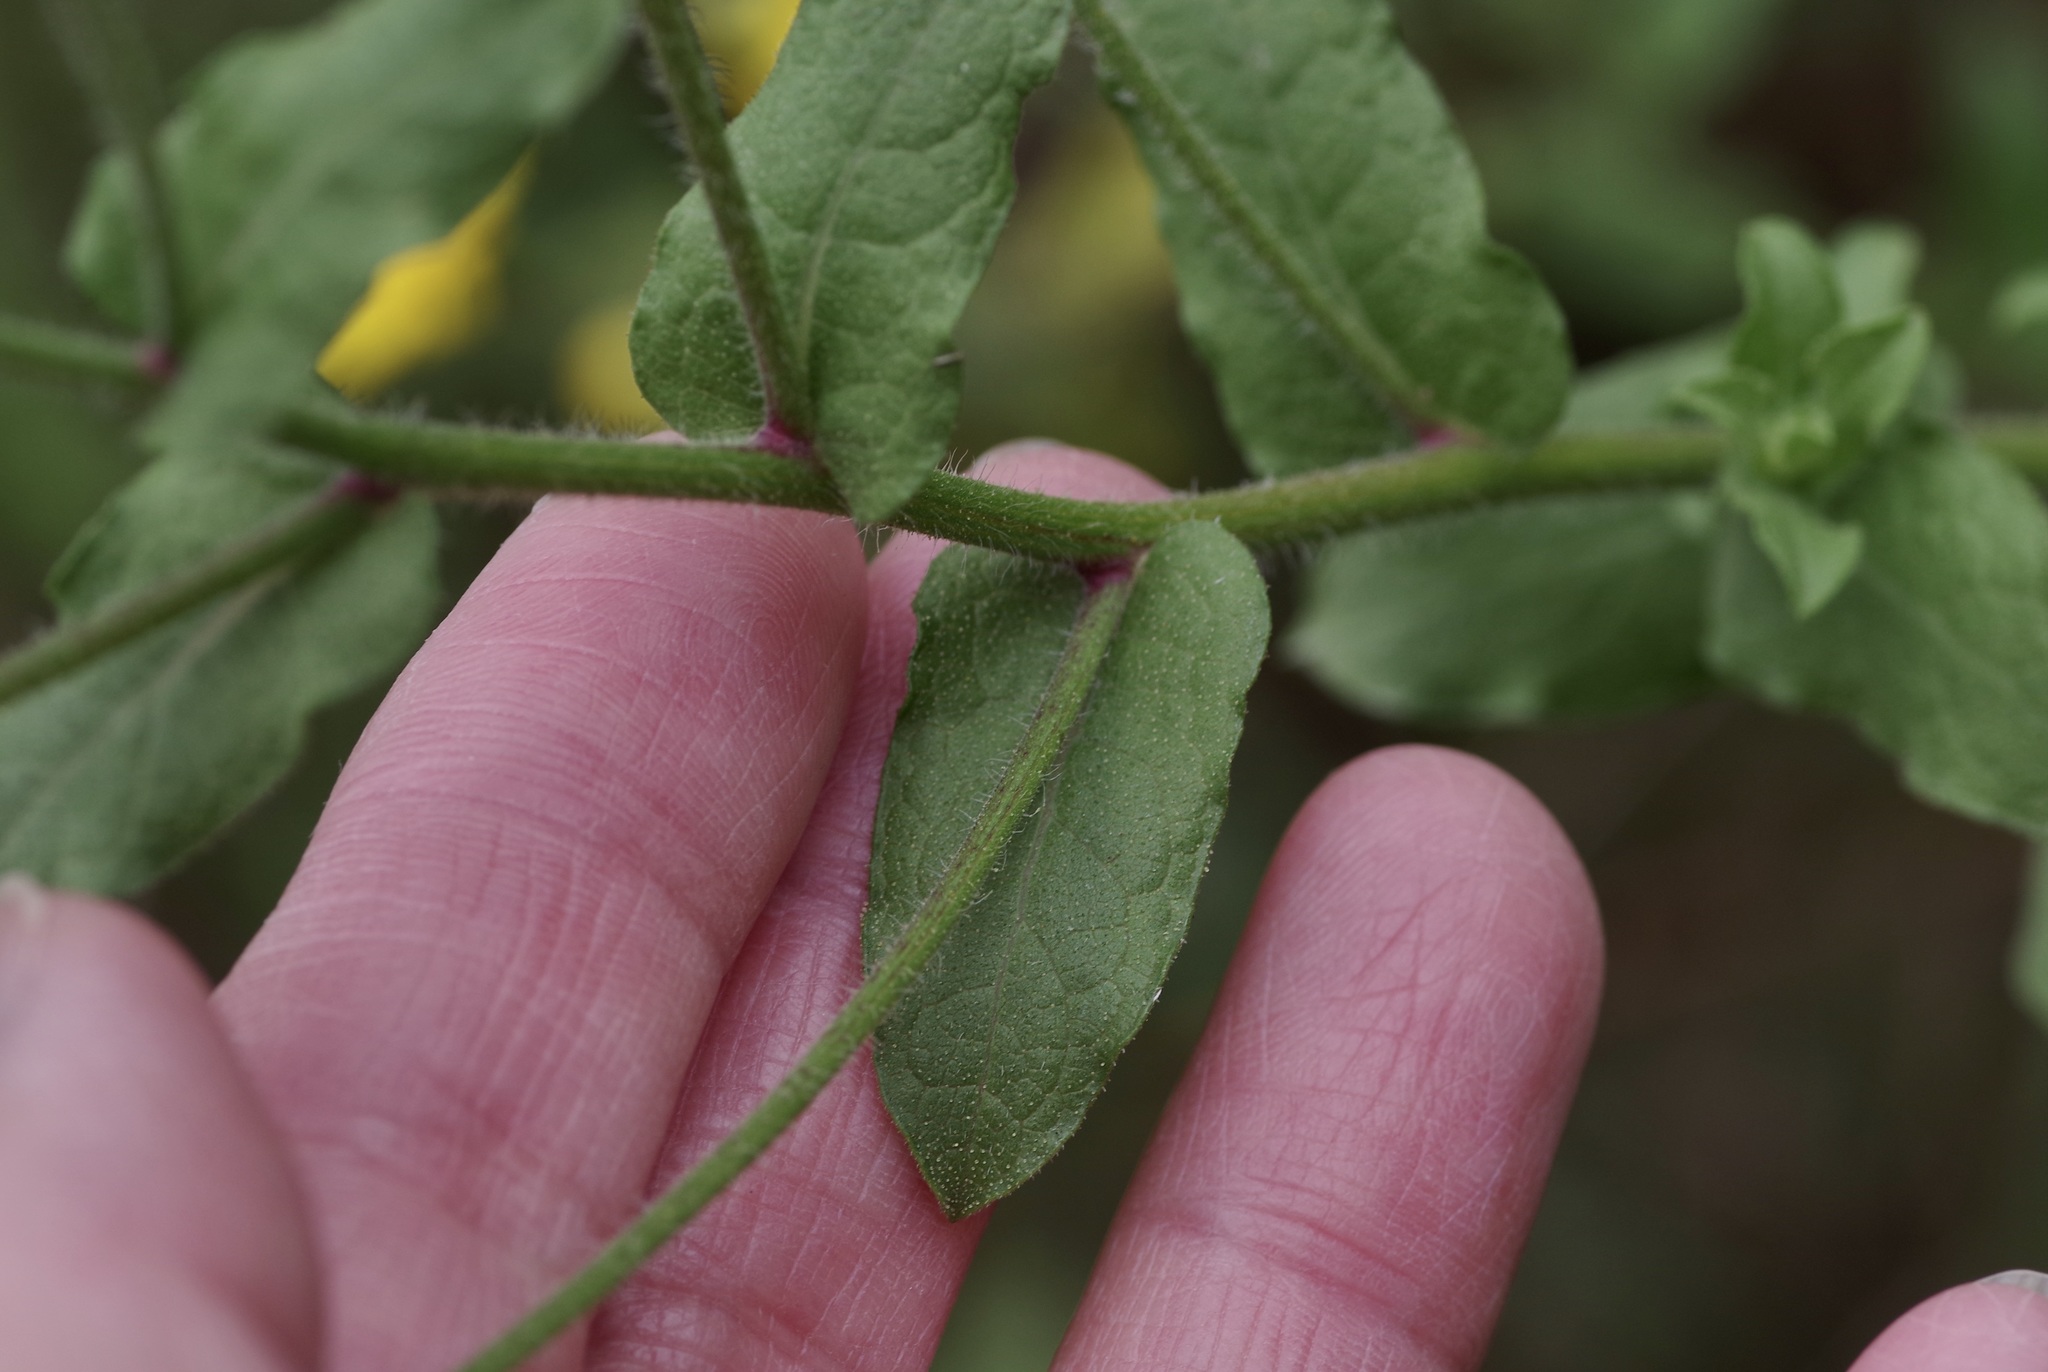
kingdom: Plantae
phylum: Tracheophyta
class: Magnoliopsida
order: Asterales
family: Asteraceae
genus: Heterotheca
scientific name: Heterotheca subaxillaris
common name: Camphorweed
